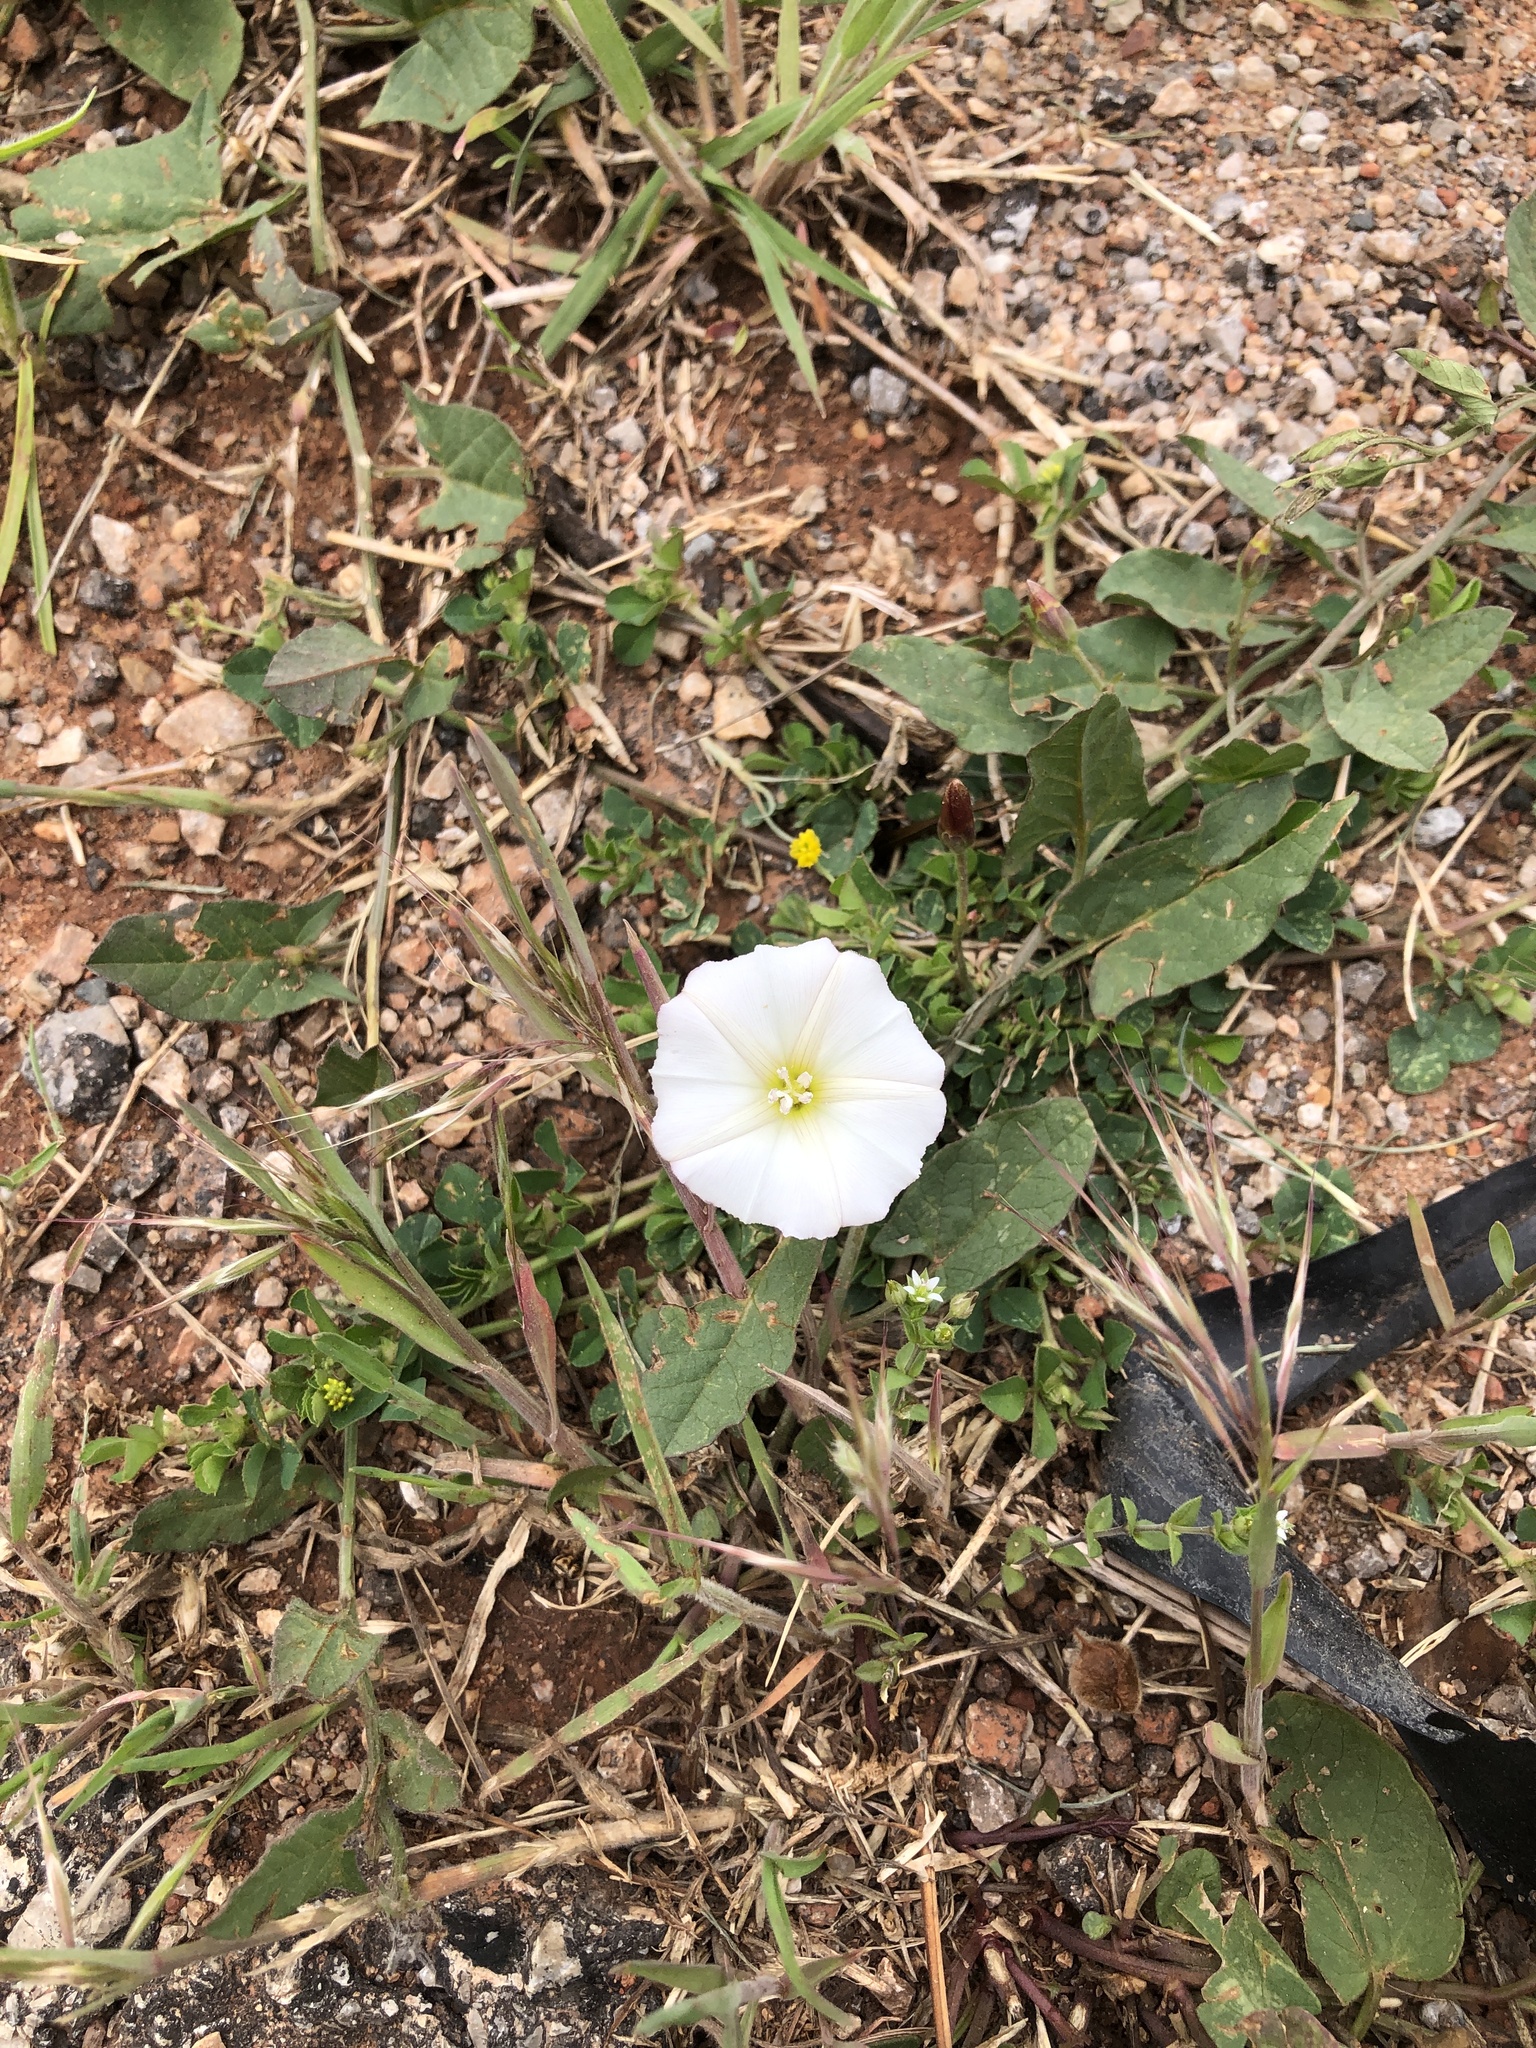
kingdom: Plantae
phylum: Tracheophyta
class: Magnoliopsida
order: Solanales
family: Convolvulaceae
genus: Convolvulus
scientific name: Convolvulus arvensis
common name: Field bindweed
